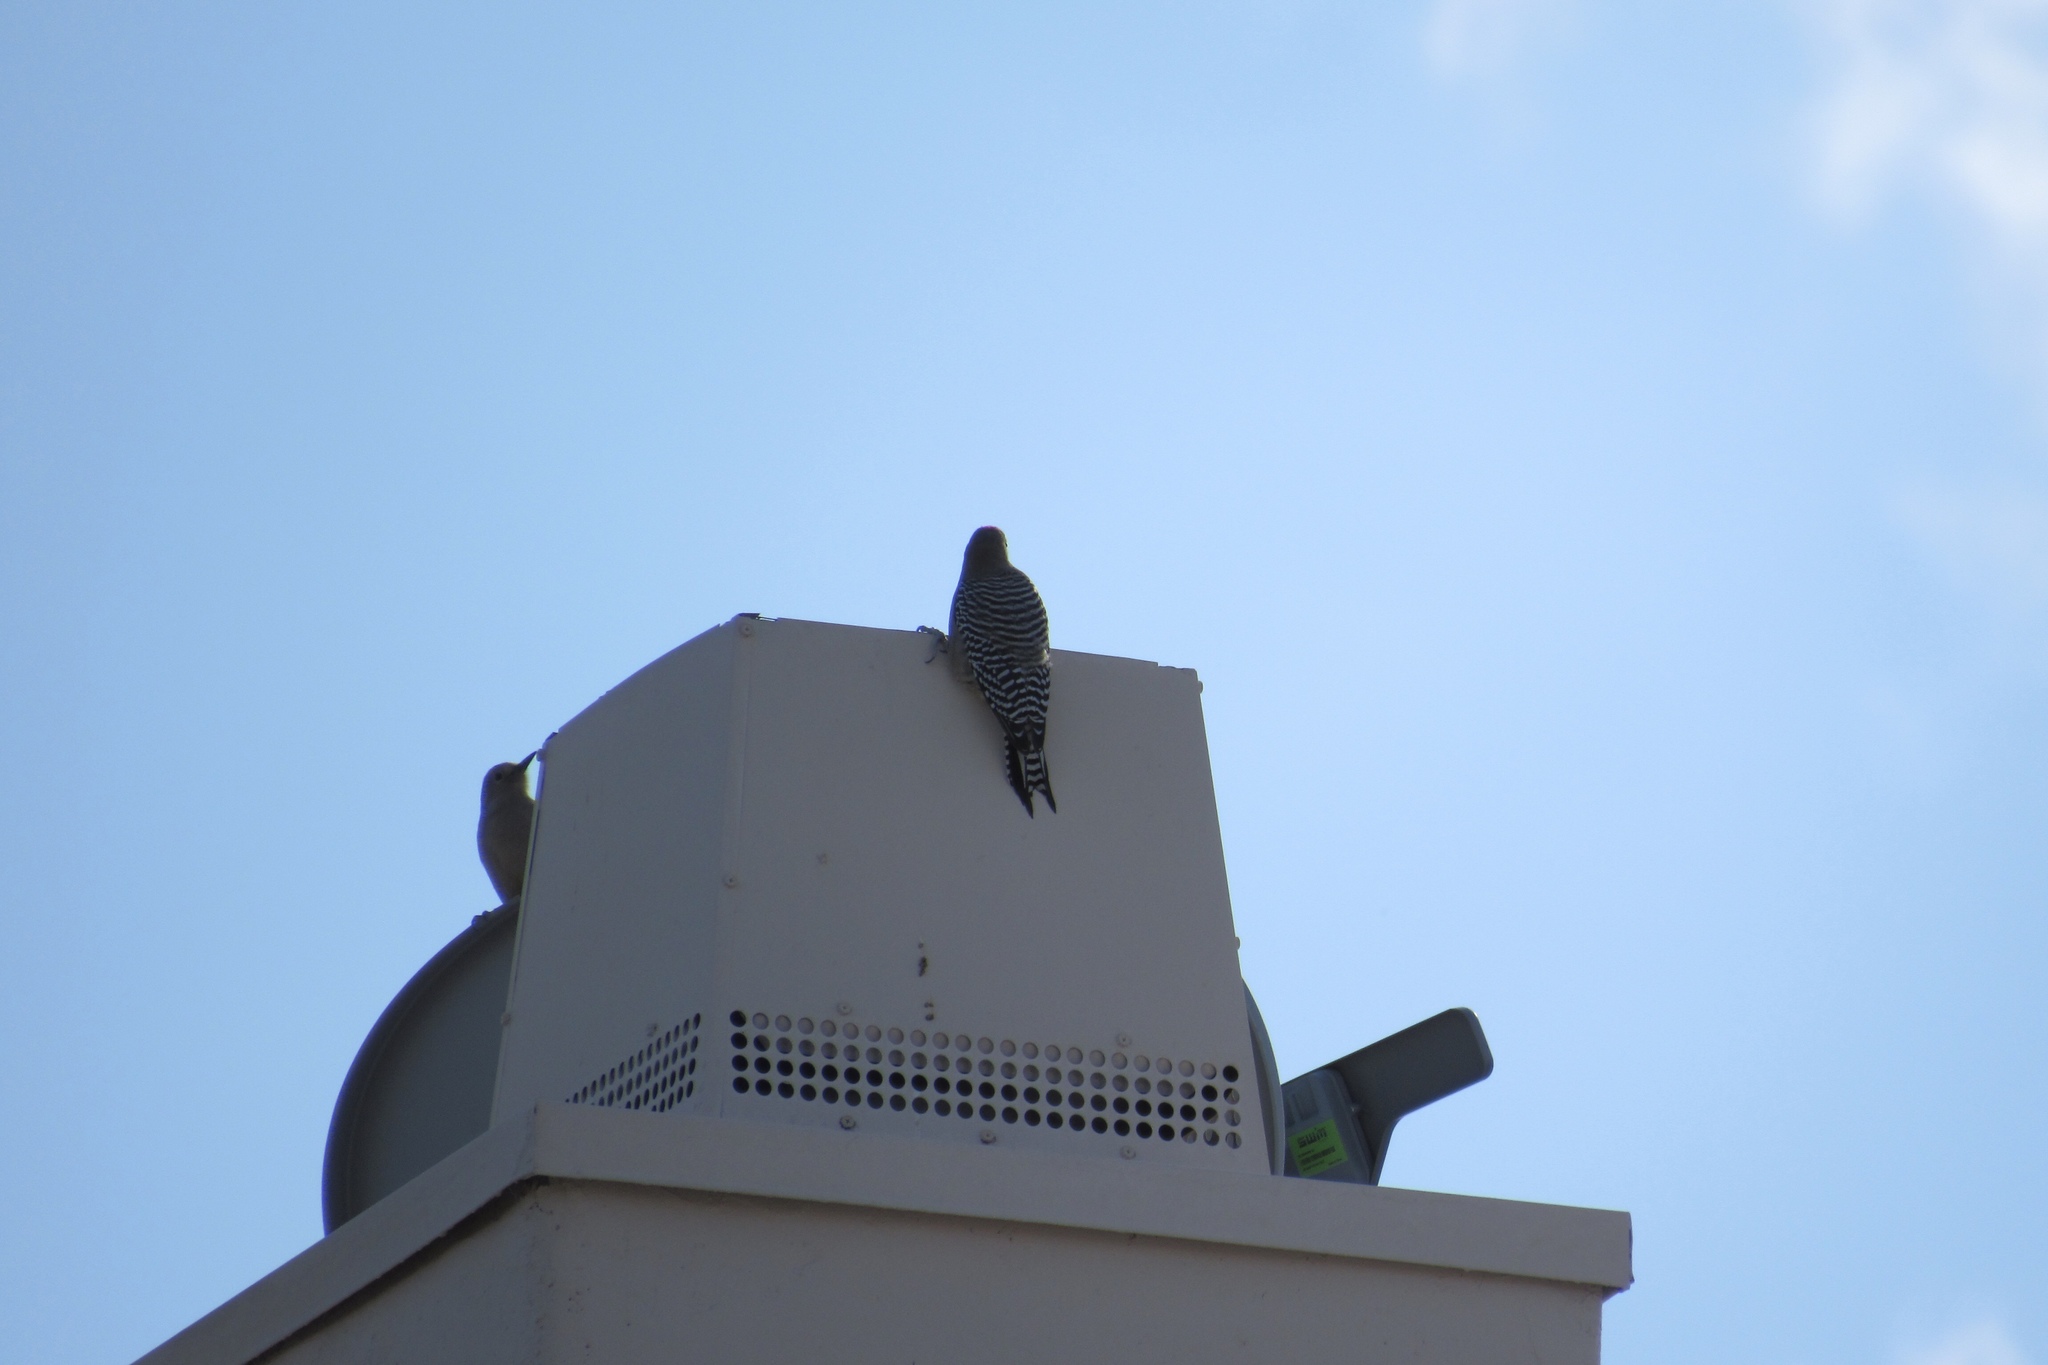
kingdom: Animalia
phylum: Chordata
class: Aves
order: Piciformes
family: Picidae
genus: Melanerpes
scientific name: Melanerpes uropygialis
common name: Gila woodpecker
